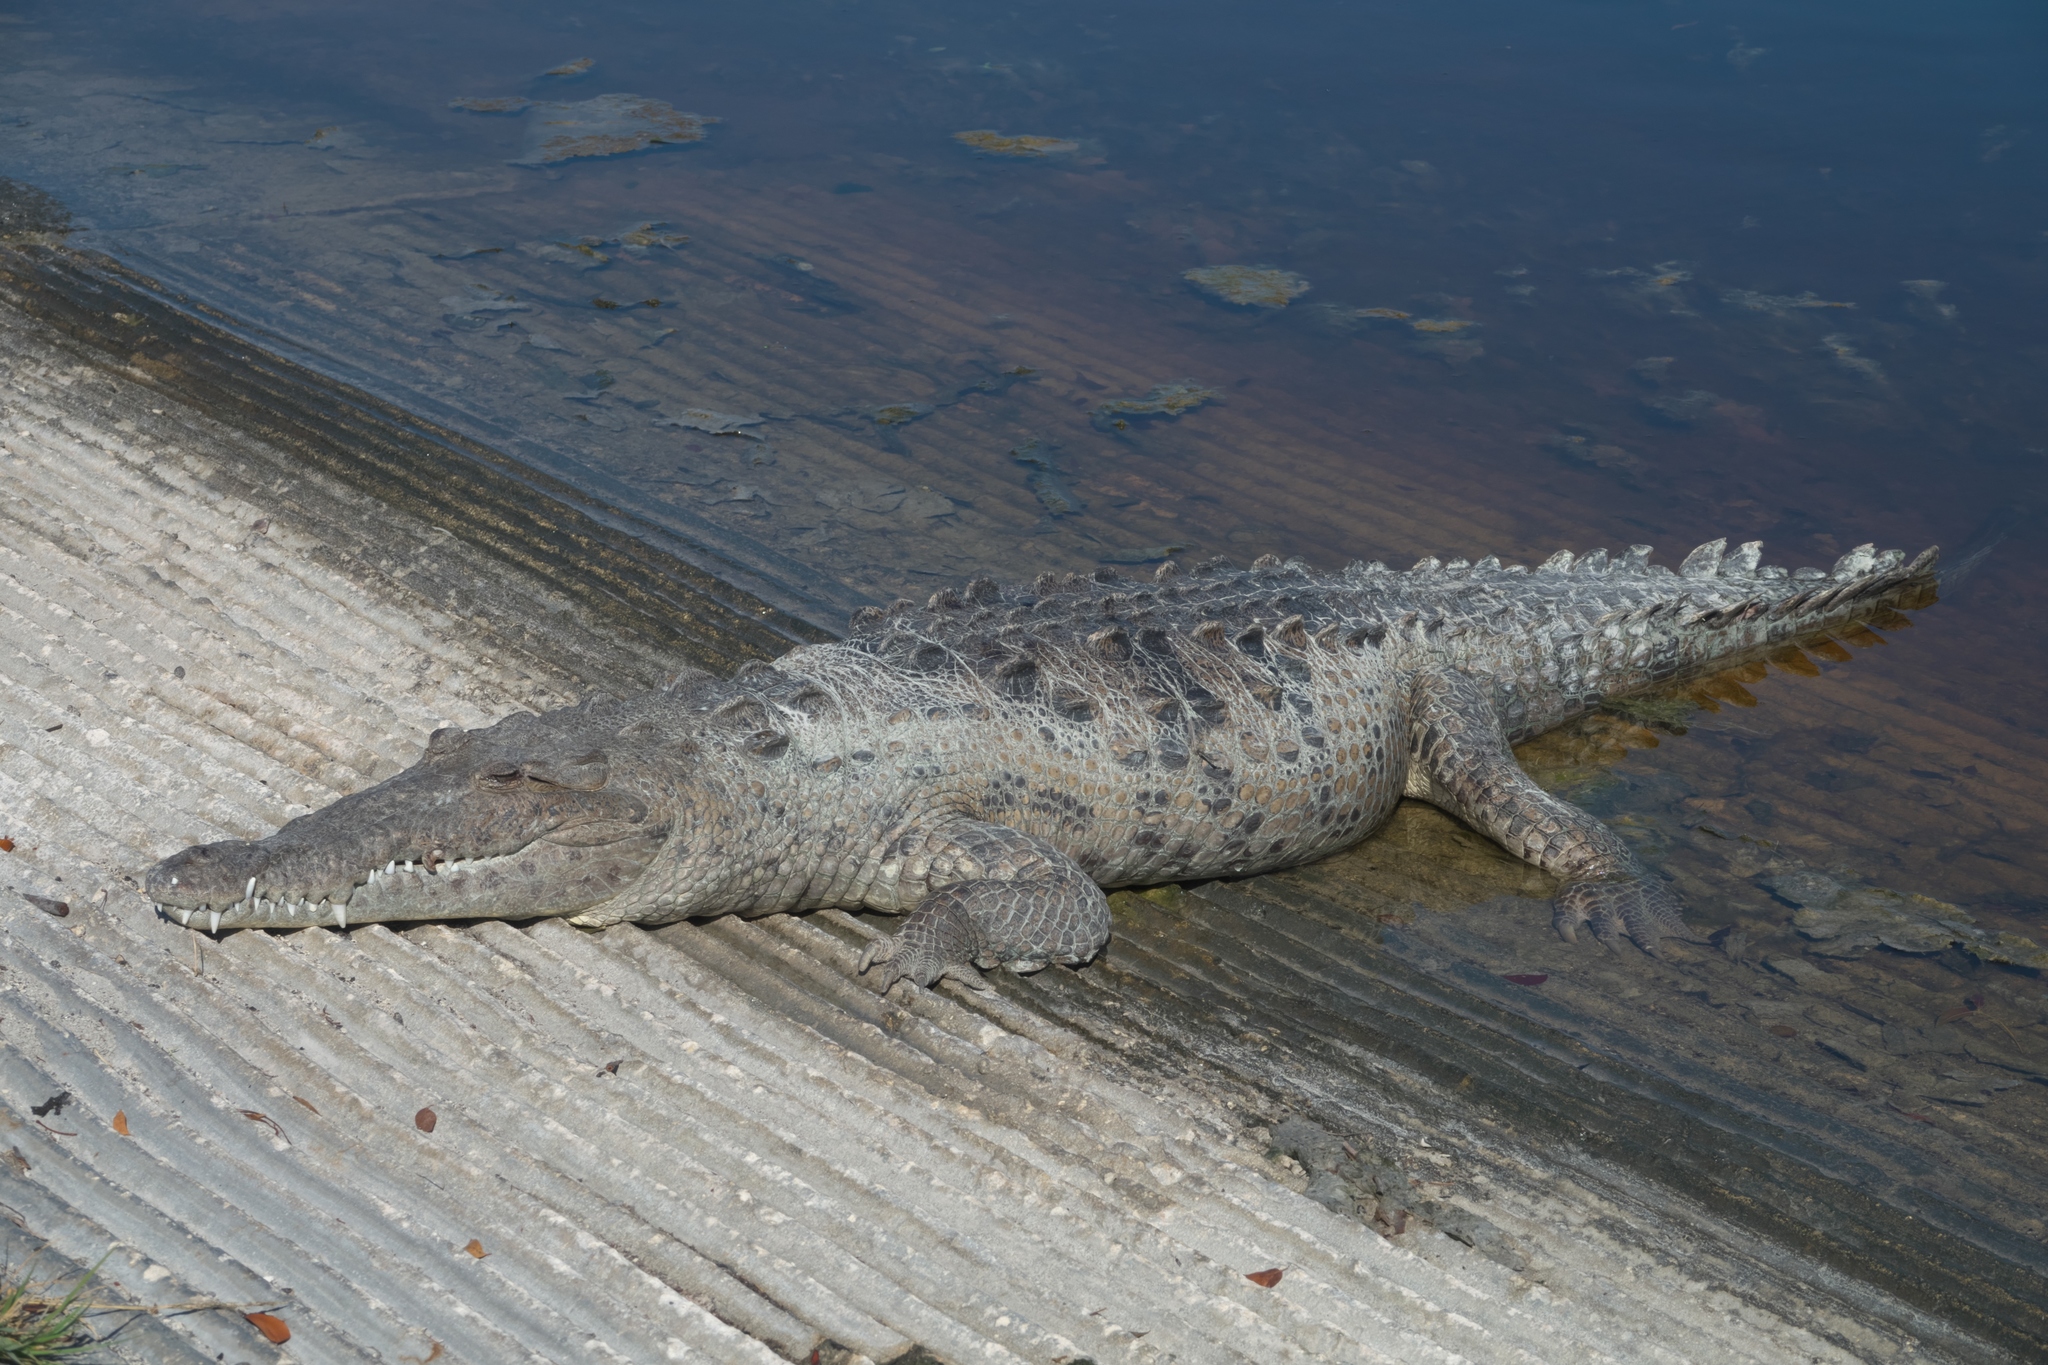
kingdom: Animalia
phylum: Chordata
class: Crocodylia
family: Crocodylidae
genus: Crocodylus
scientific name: Crocodylus acutus
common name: American crocodile
